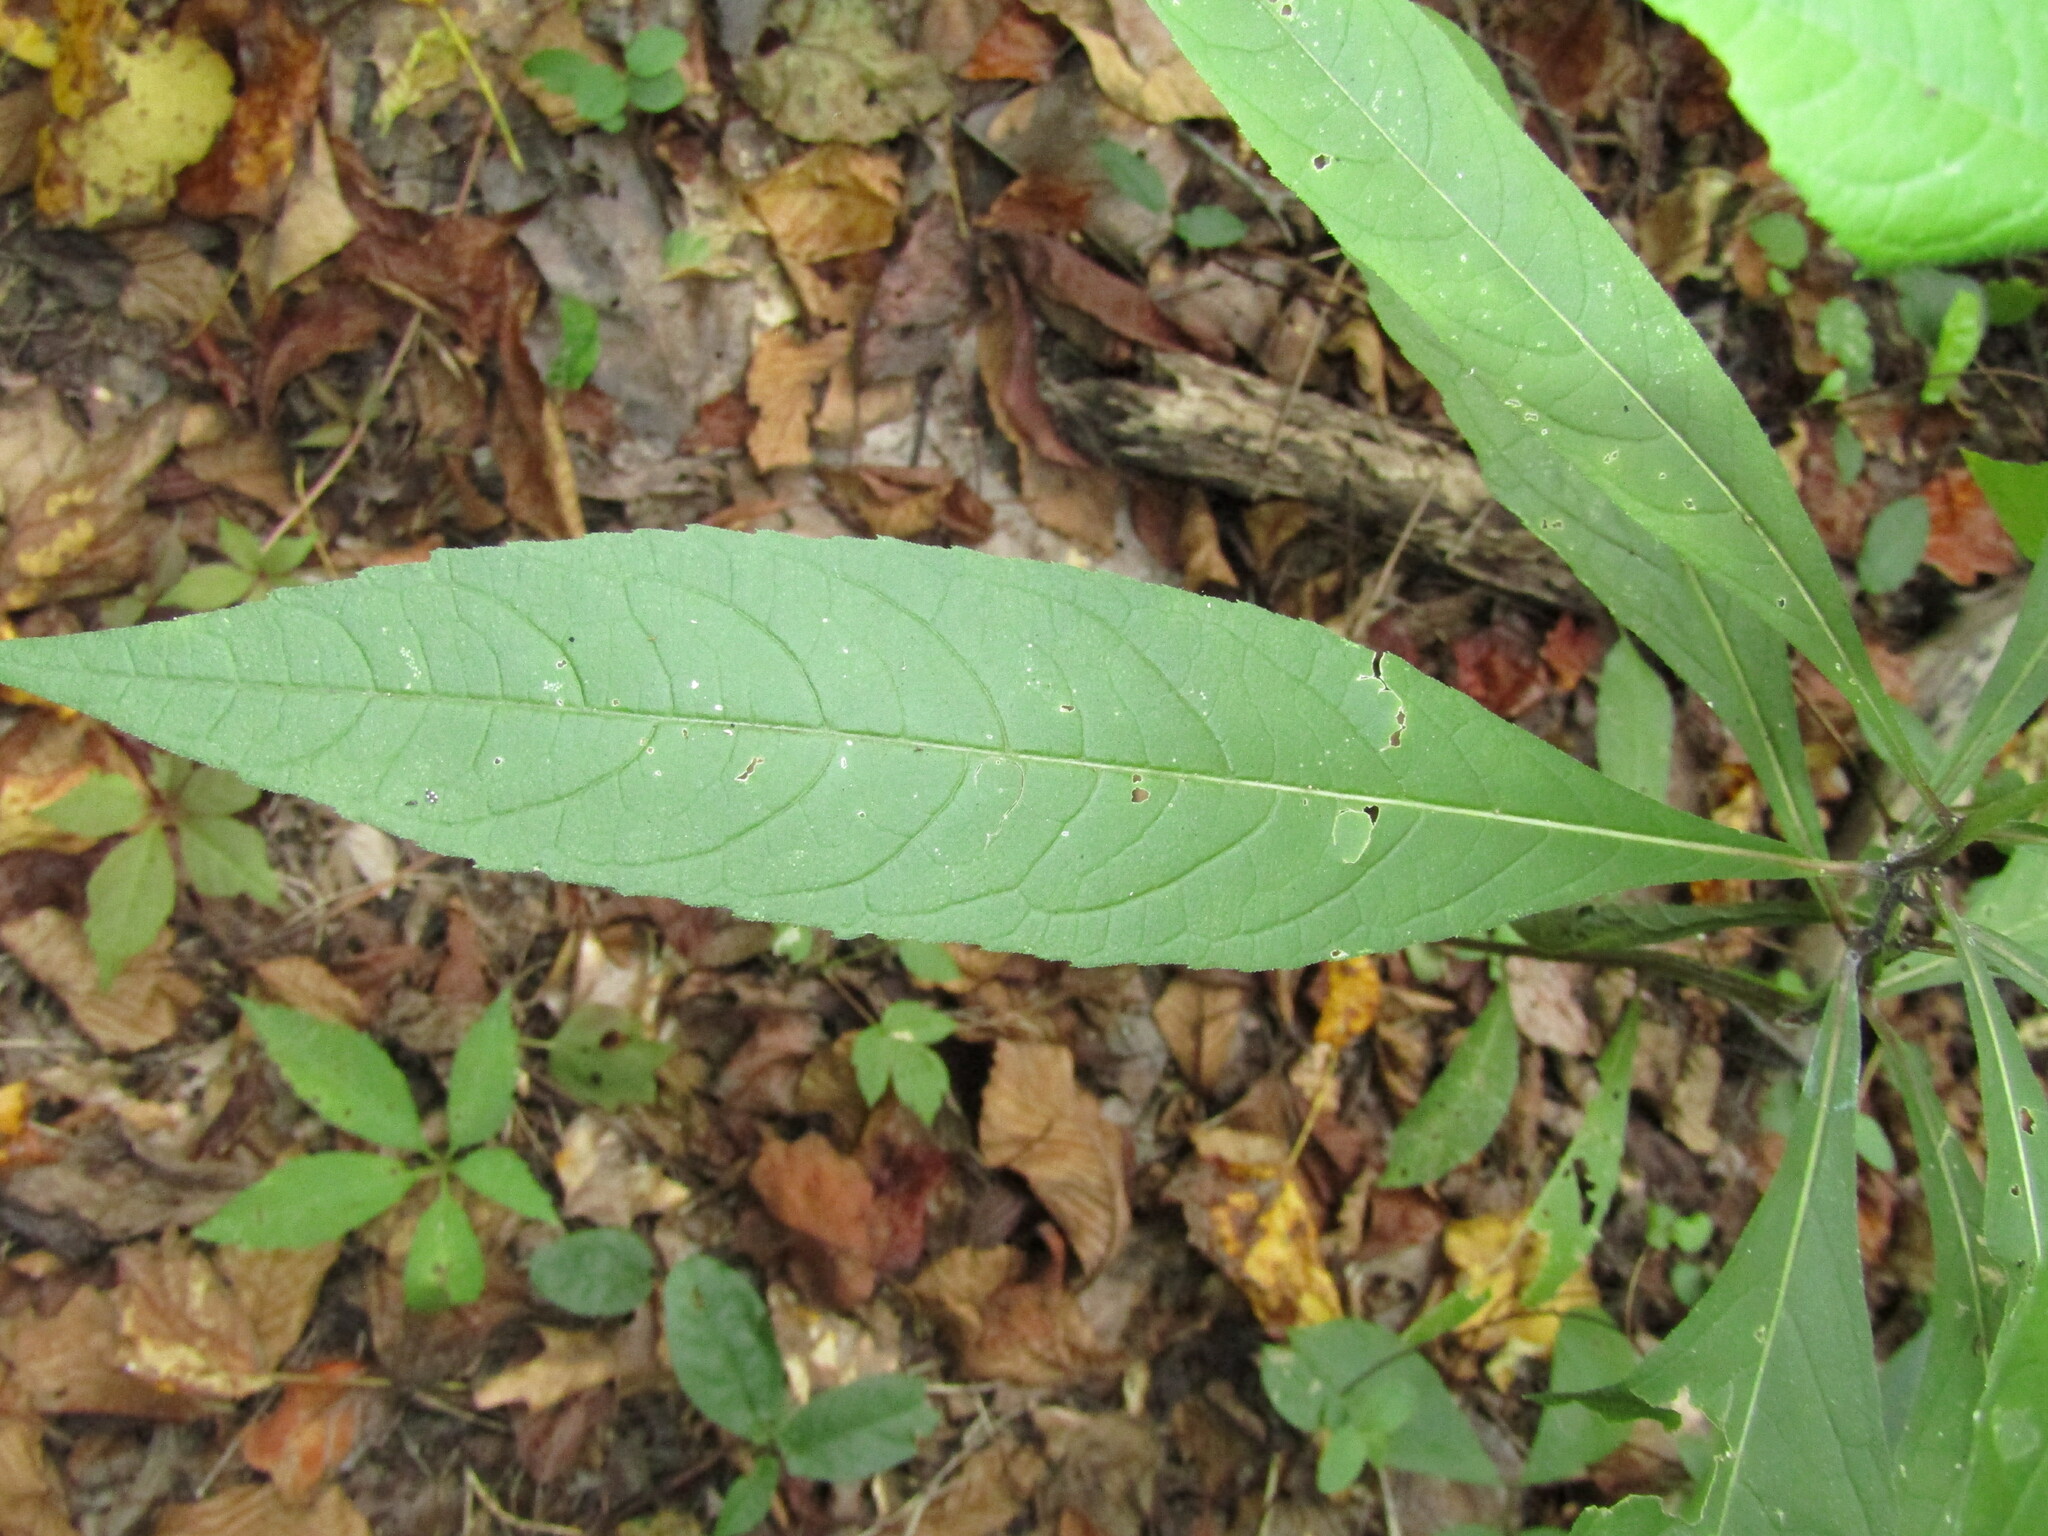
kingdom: Plantae
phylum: Tracheophyta
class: Magnoliopsida
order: Asterales
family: Asteraceae
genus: Verbesina
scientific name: Verbesina alternifolia
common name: Wingstem
